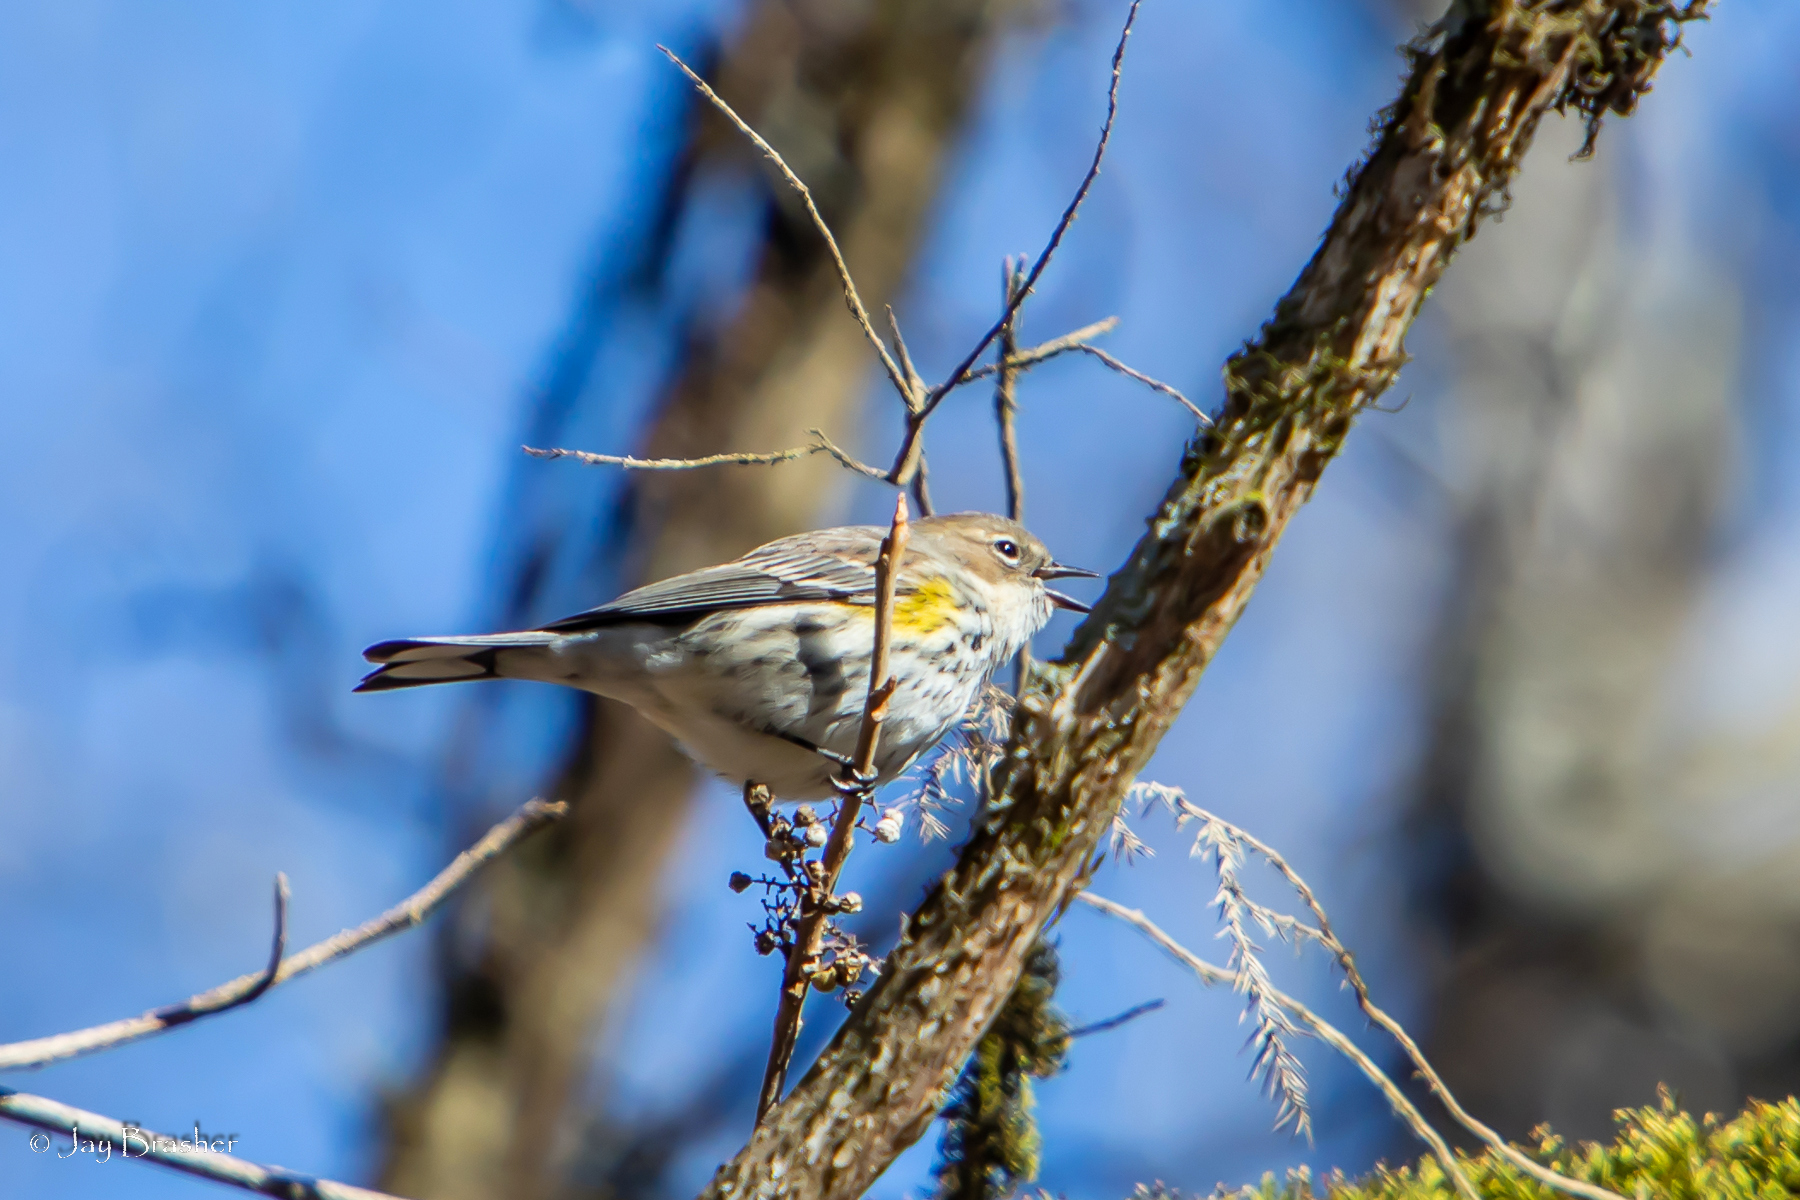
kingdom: Animalia
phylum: Chordata
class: Aves
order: Passeriformes
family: Parulidae
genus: Setophaga
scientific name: Setophaga coronata
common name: Myrtle warbler
